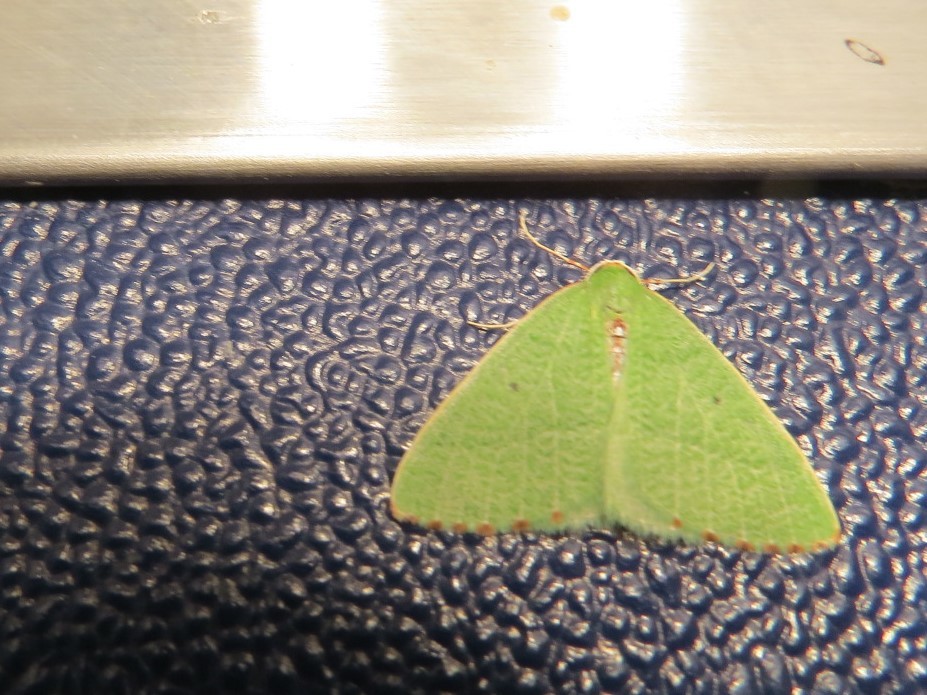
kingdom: Animalia
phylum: Arthropoda
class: Insecta
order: Lepidoptera
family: Geometridae
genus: Nemoria
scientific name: Nemoria pulcherrima
